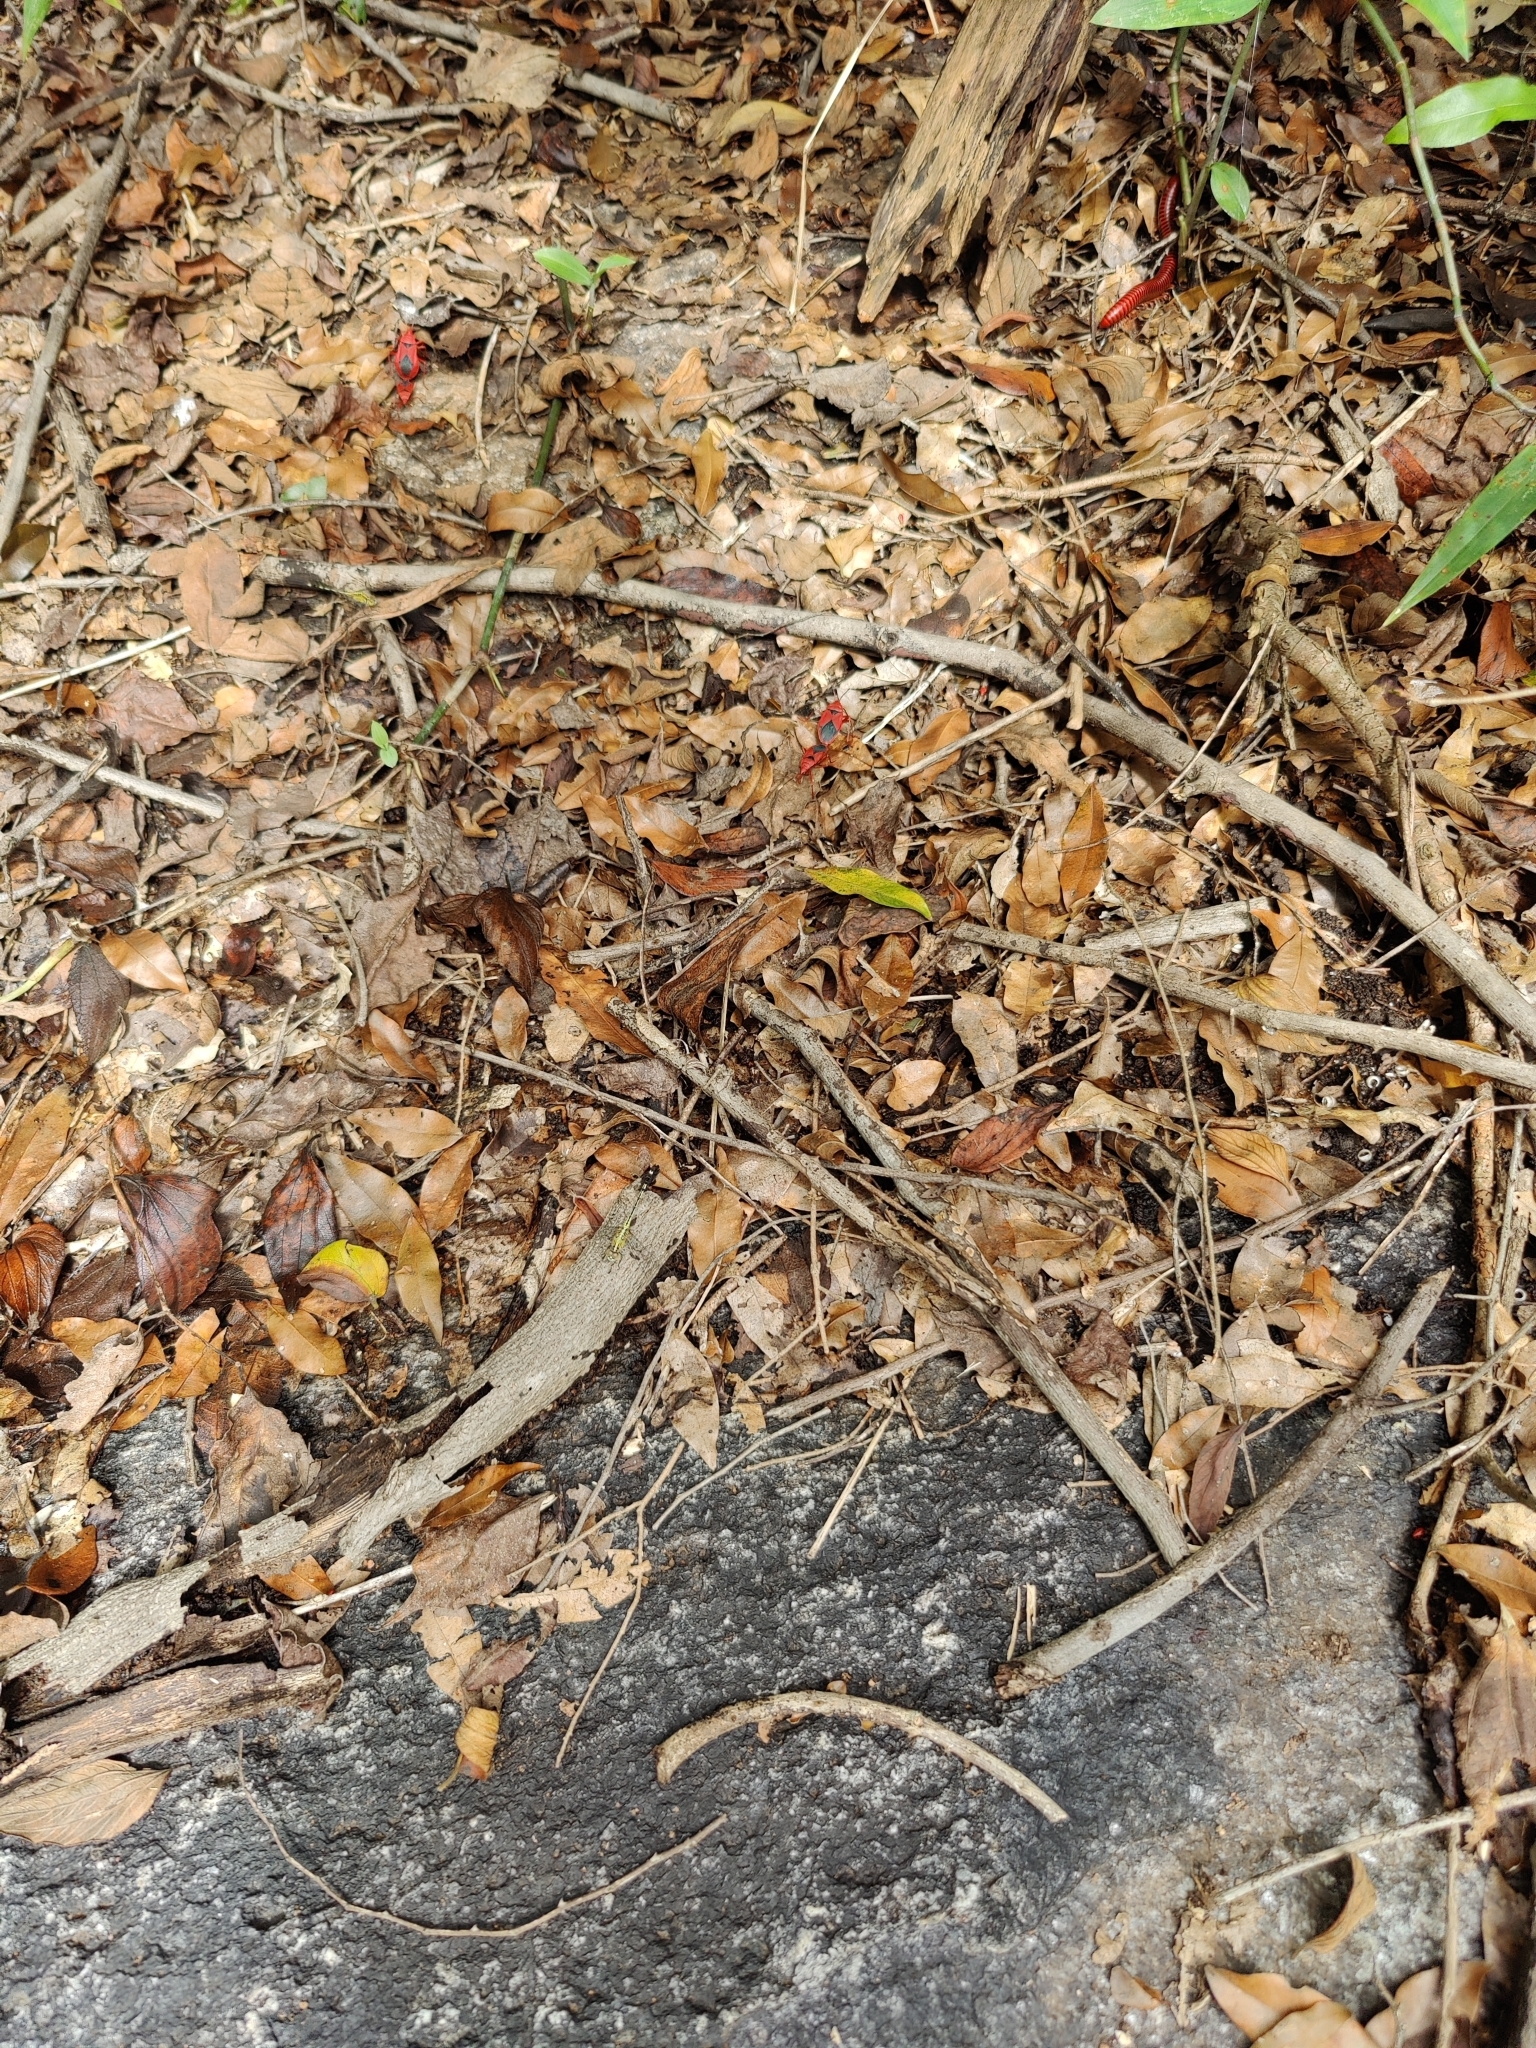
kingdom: Animalia
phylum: Arthropoda
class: Insecta
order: Hemiptera
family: Pyrrhocoridae
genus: Probergrothius
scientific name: Probergrothius
